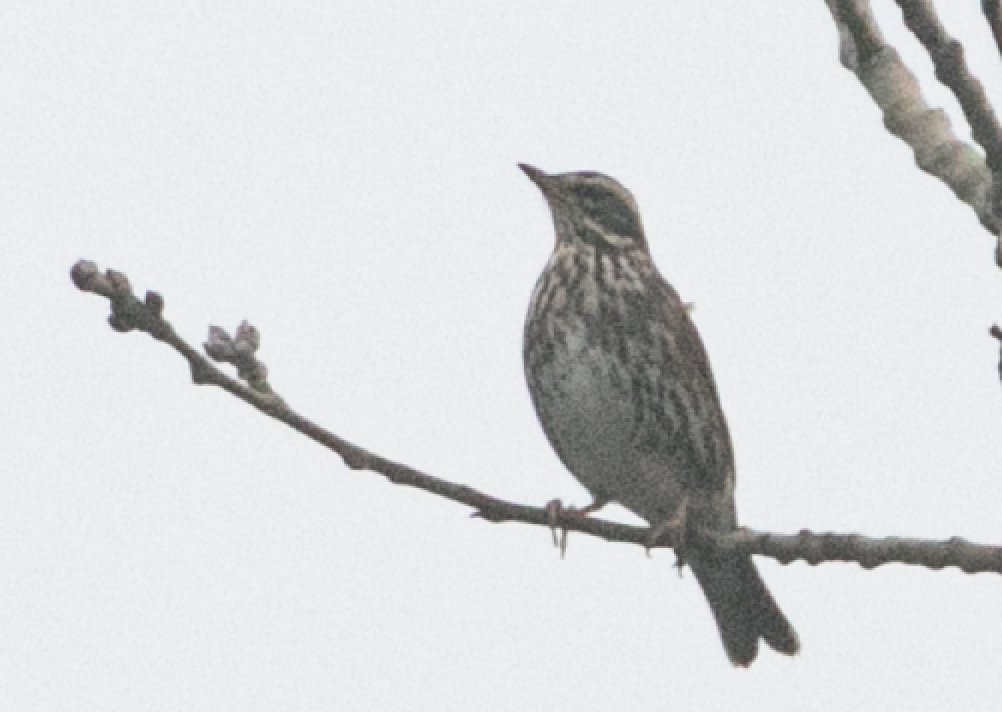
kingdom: Animalia
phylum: Chordata
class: Aves
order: Passeriformes
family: Turdidae
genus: Turdus
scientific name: Turdus iliacus
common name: Redwing
